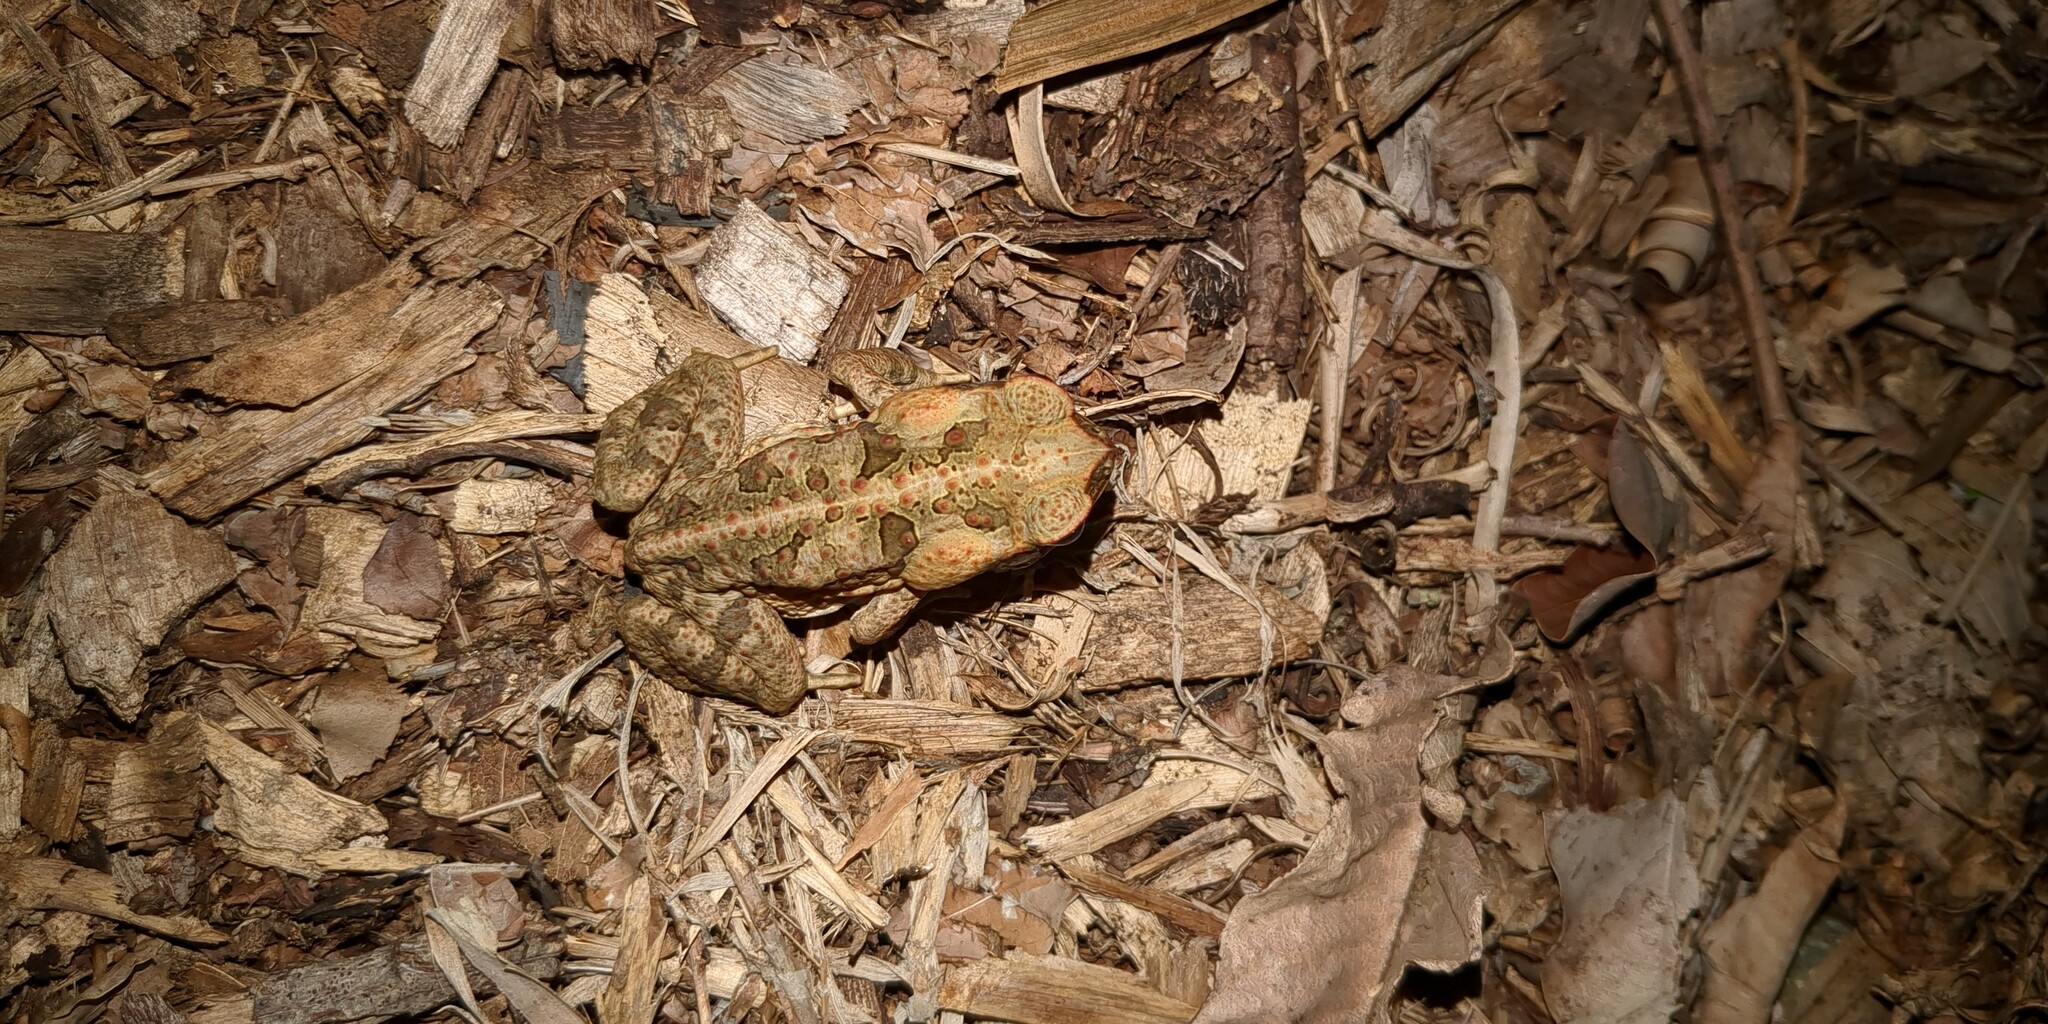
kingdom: Animalia
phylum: Chordata
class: Amphibia
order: Anura
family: Bufonidae
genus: Rhinella
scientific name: Rhinella marina
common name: Cane toad
